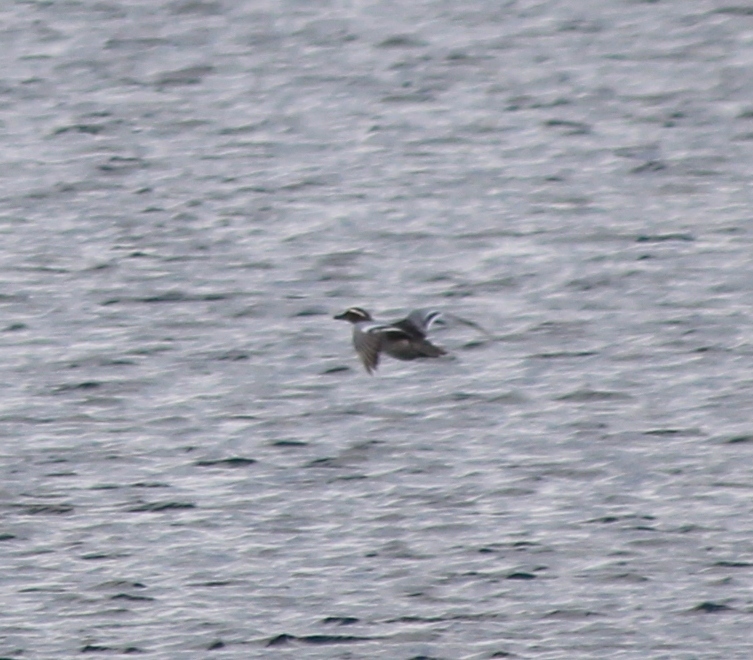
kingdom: Animalia
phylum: Chordata
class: Aves
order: Anseriformes
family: Anatidae
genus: Spatula
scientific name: Spatula querquedula
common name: Garganey
